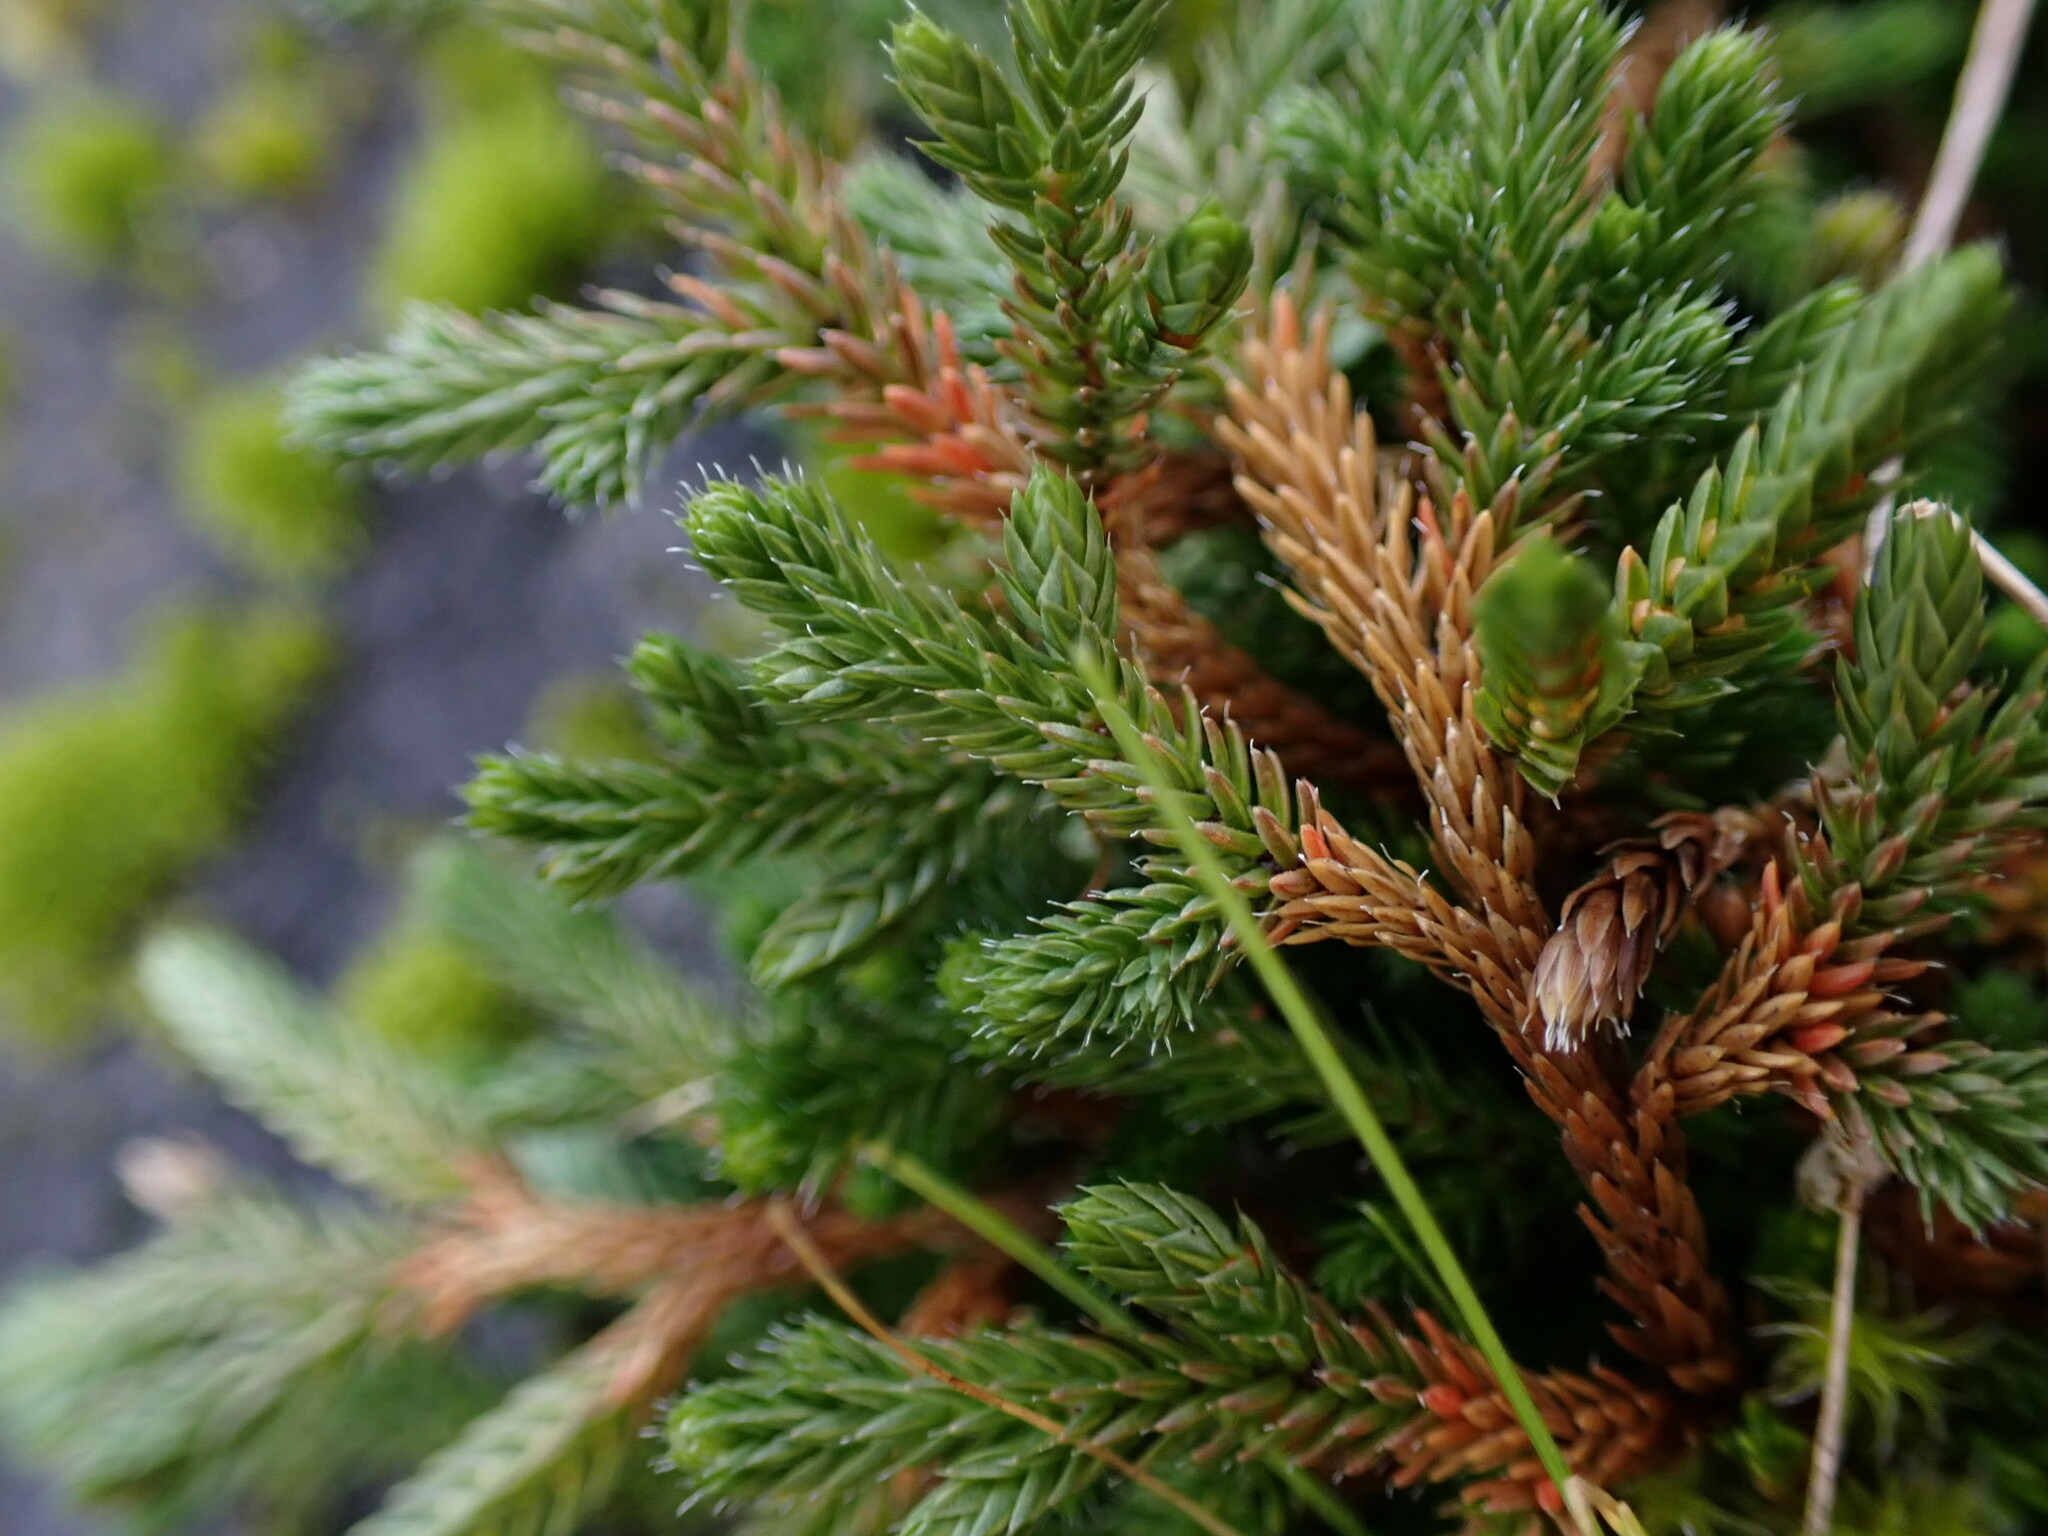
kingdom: Plantae
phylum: Tracheophyta
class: Lycopodiopsida
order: Selaginellales
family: Selaginellaceae
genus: Selaginella
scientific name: Selaginella wallacei
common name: Wallace's selaginella
